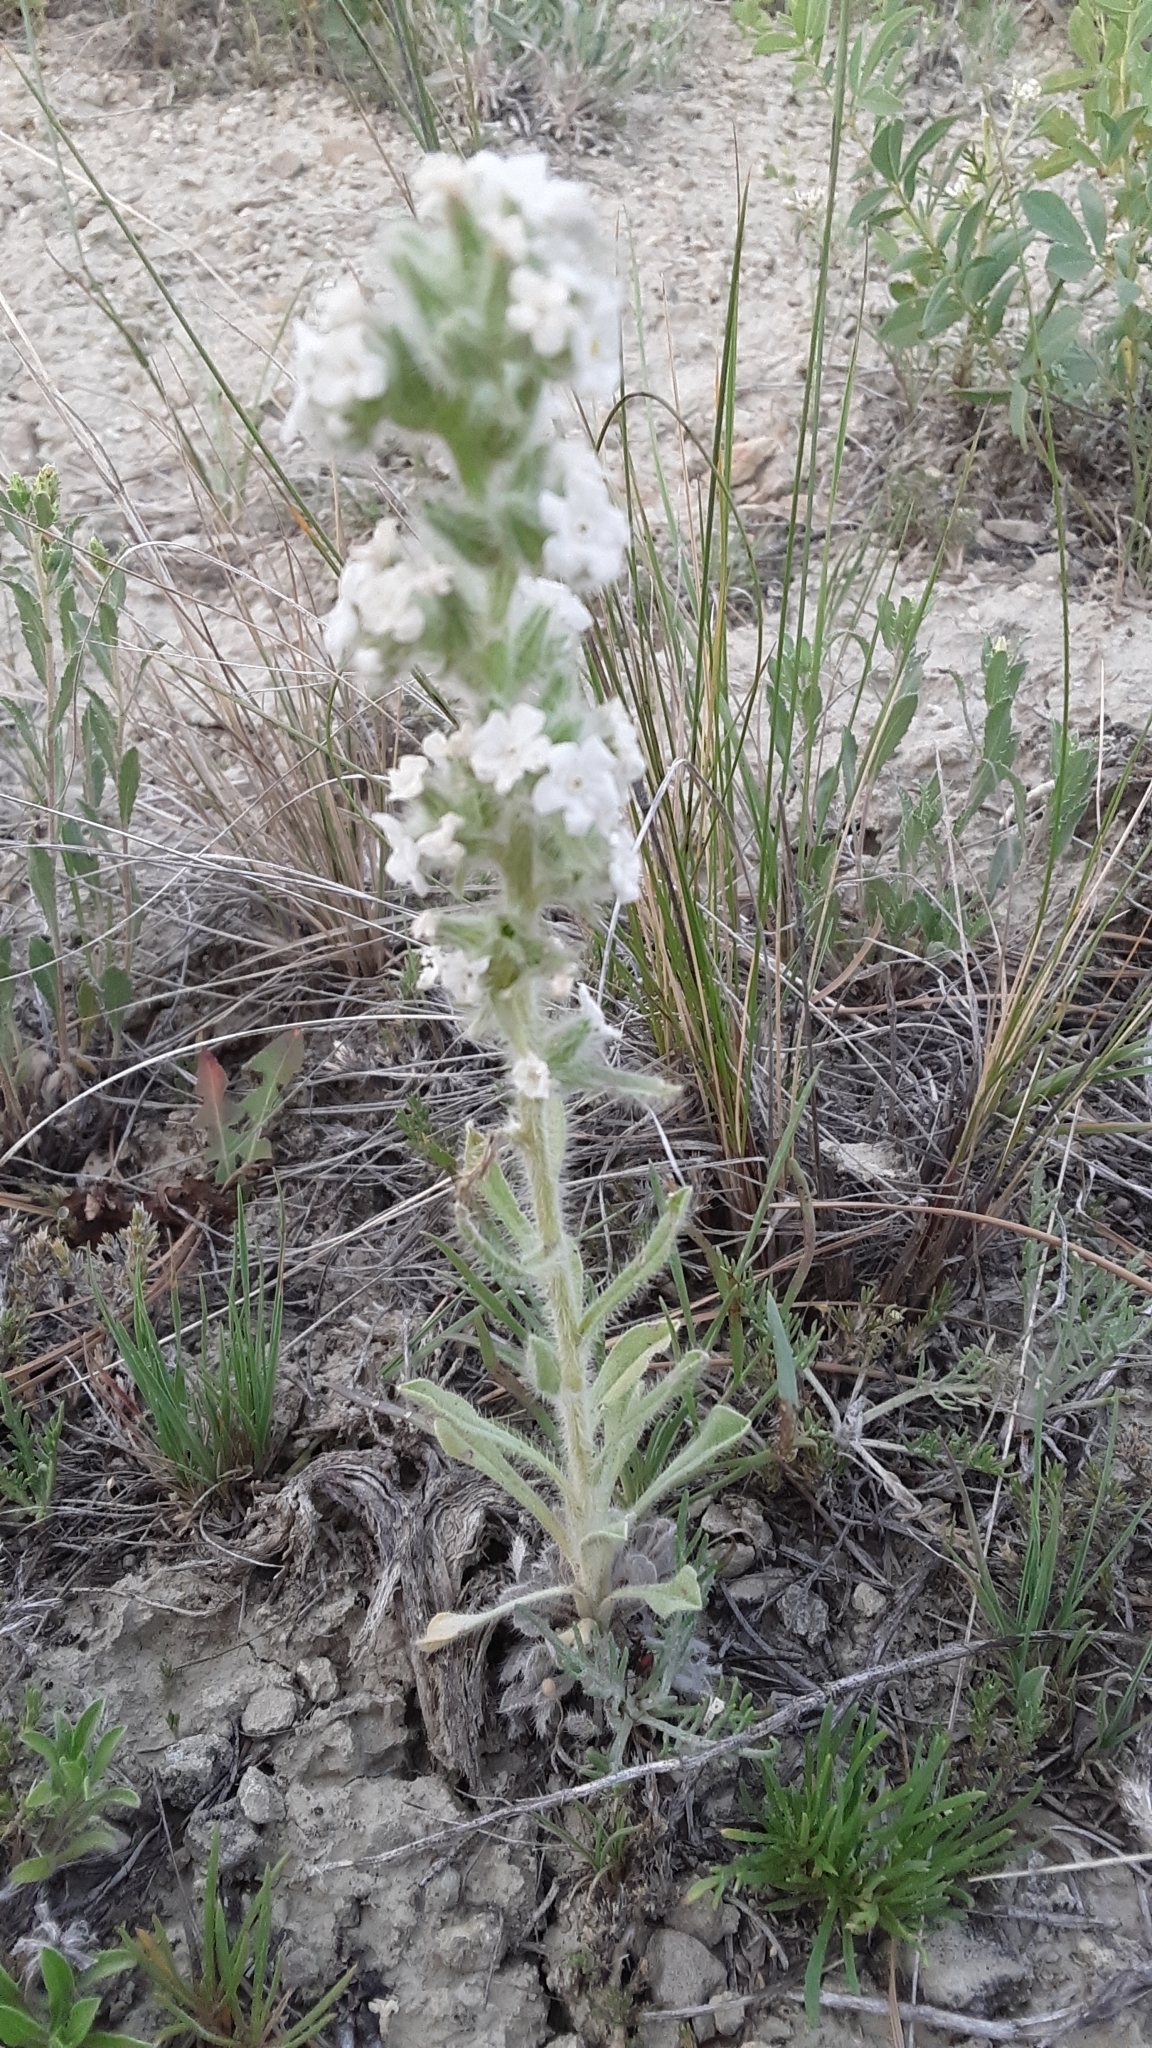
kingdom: Plantae
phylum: Tracheophyta
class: Magnoliopsida
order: Boraginales
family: Boraginaceae
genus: Oreocarya
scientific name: Oreocarya glomerata
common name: Macoun's cryptantha
